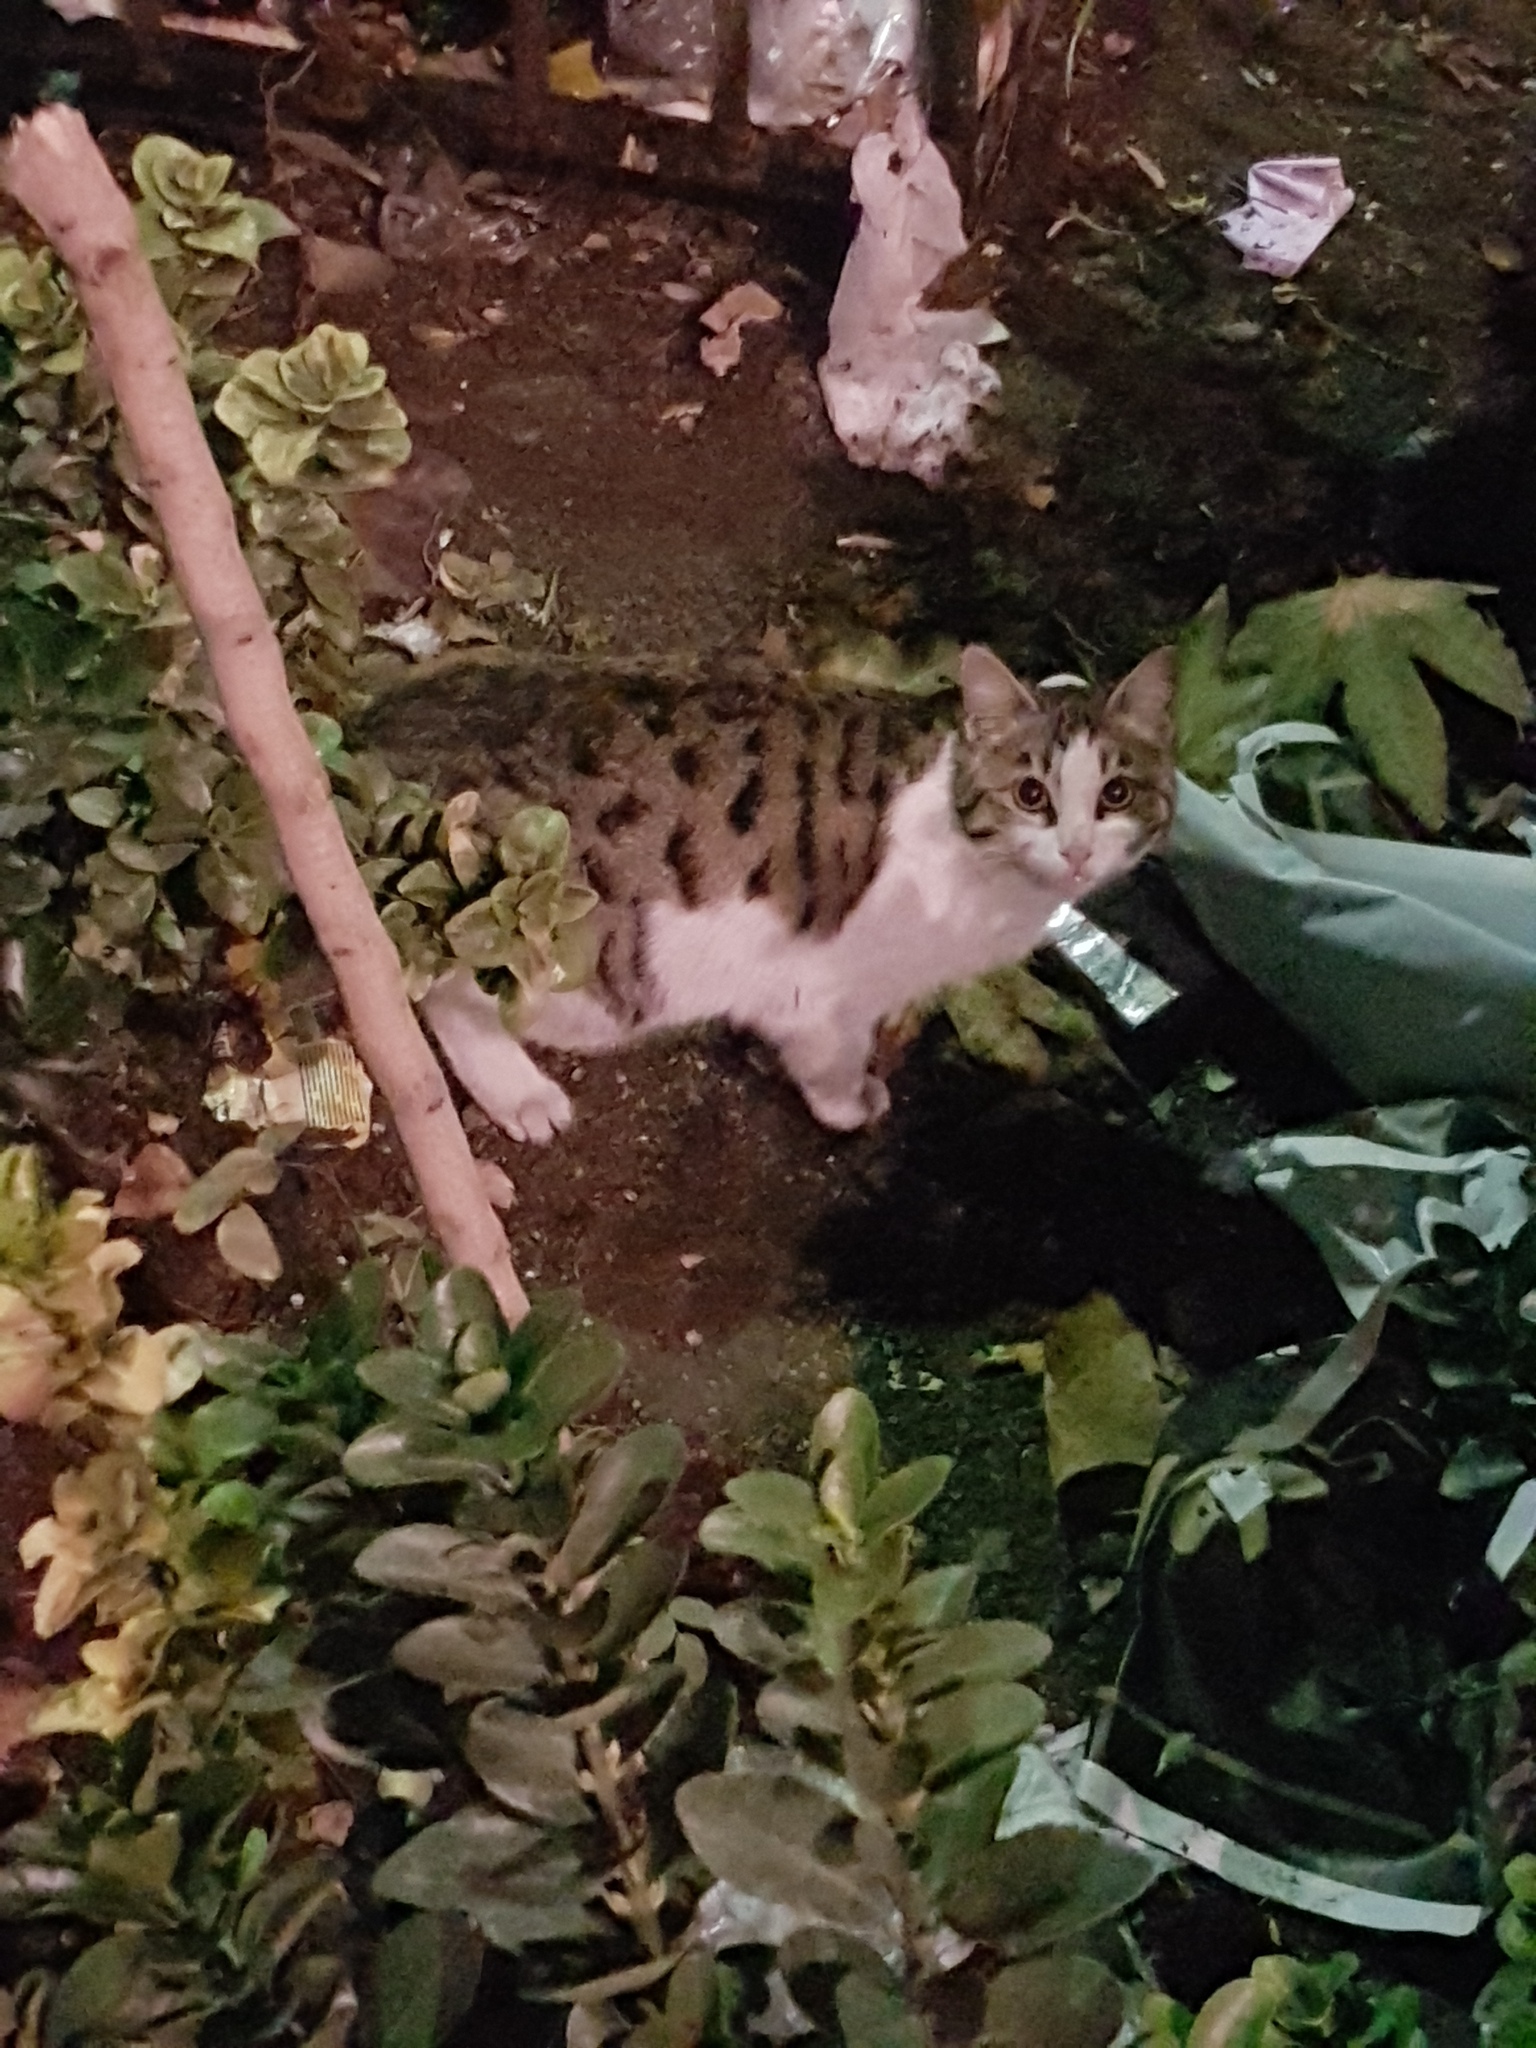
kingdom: Animalia
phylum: Chordata
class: Mammalia
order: Carnivora
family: Felidae
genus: Felis
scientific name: Felis catus
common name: Domestic cat
